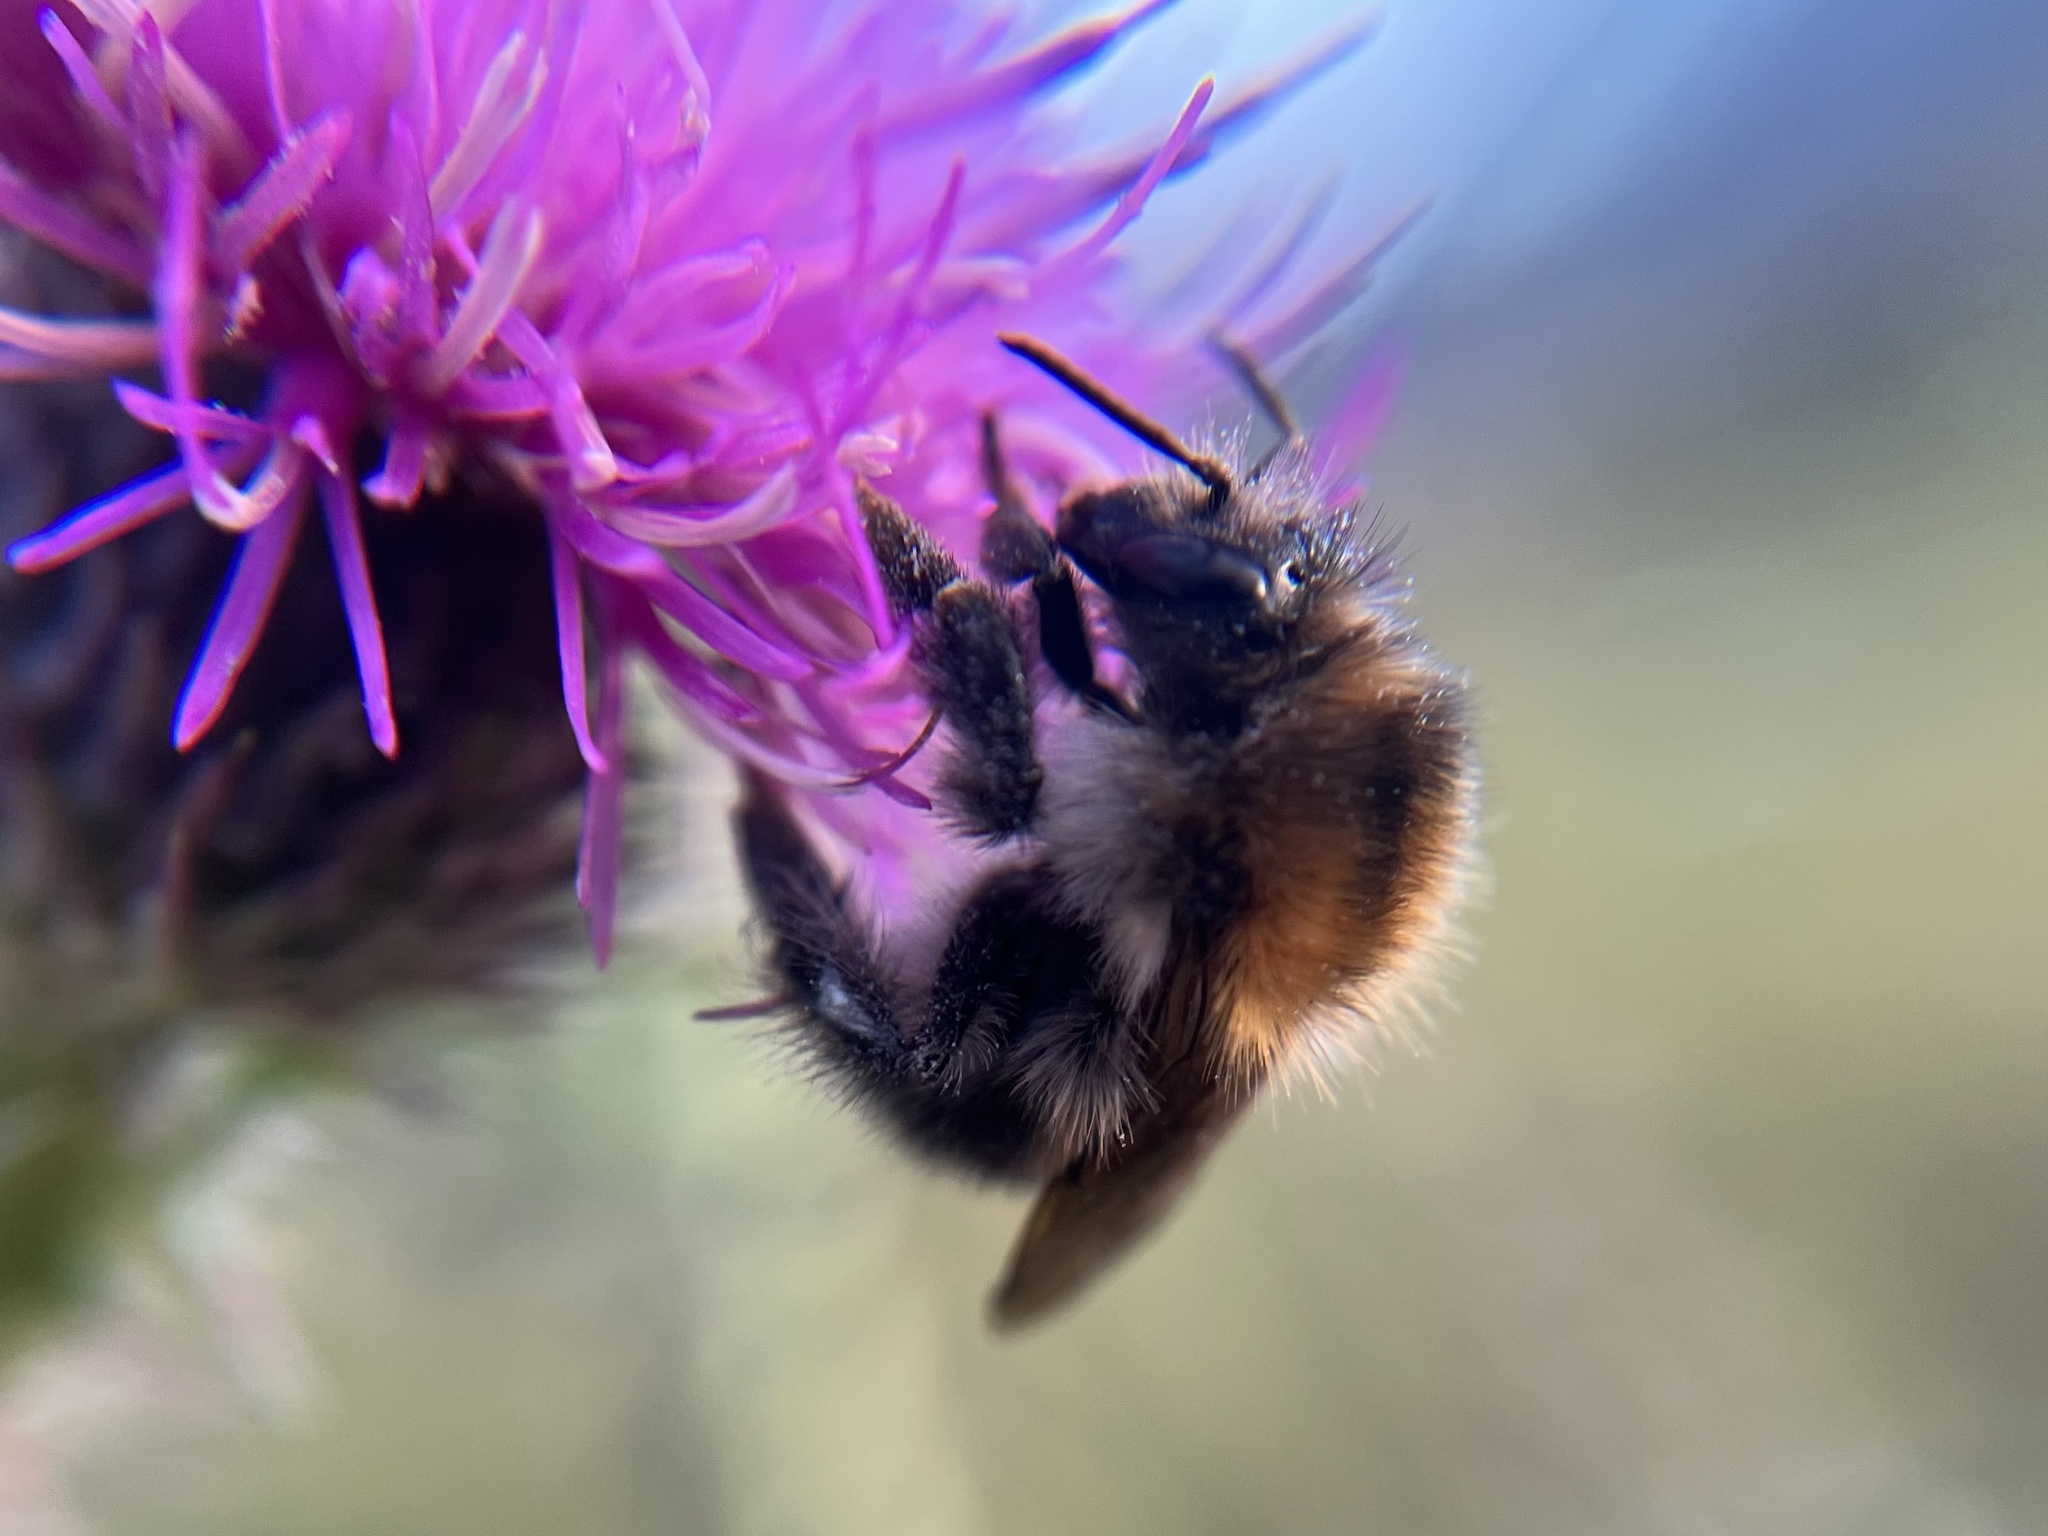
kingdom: Animalia
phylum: Arthropoda
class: Insecta
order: Hymenoptera
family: Apidae
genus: Bombus
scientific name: Bombus pascuorum
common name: Common carder bee
